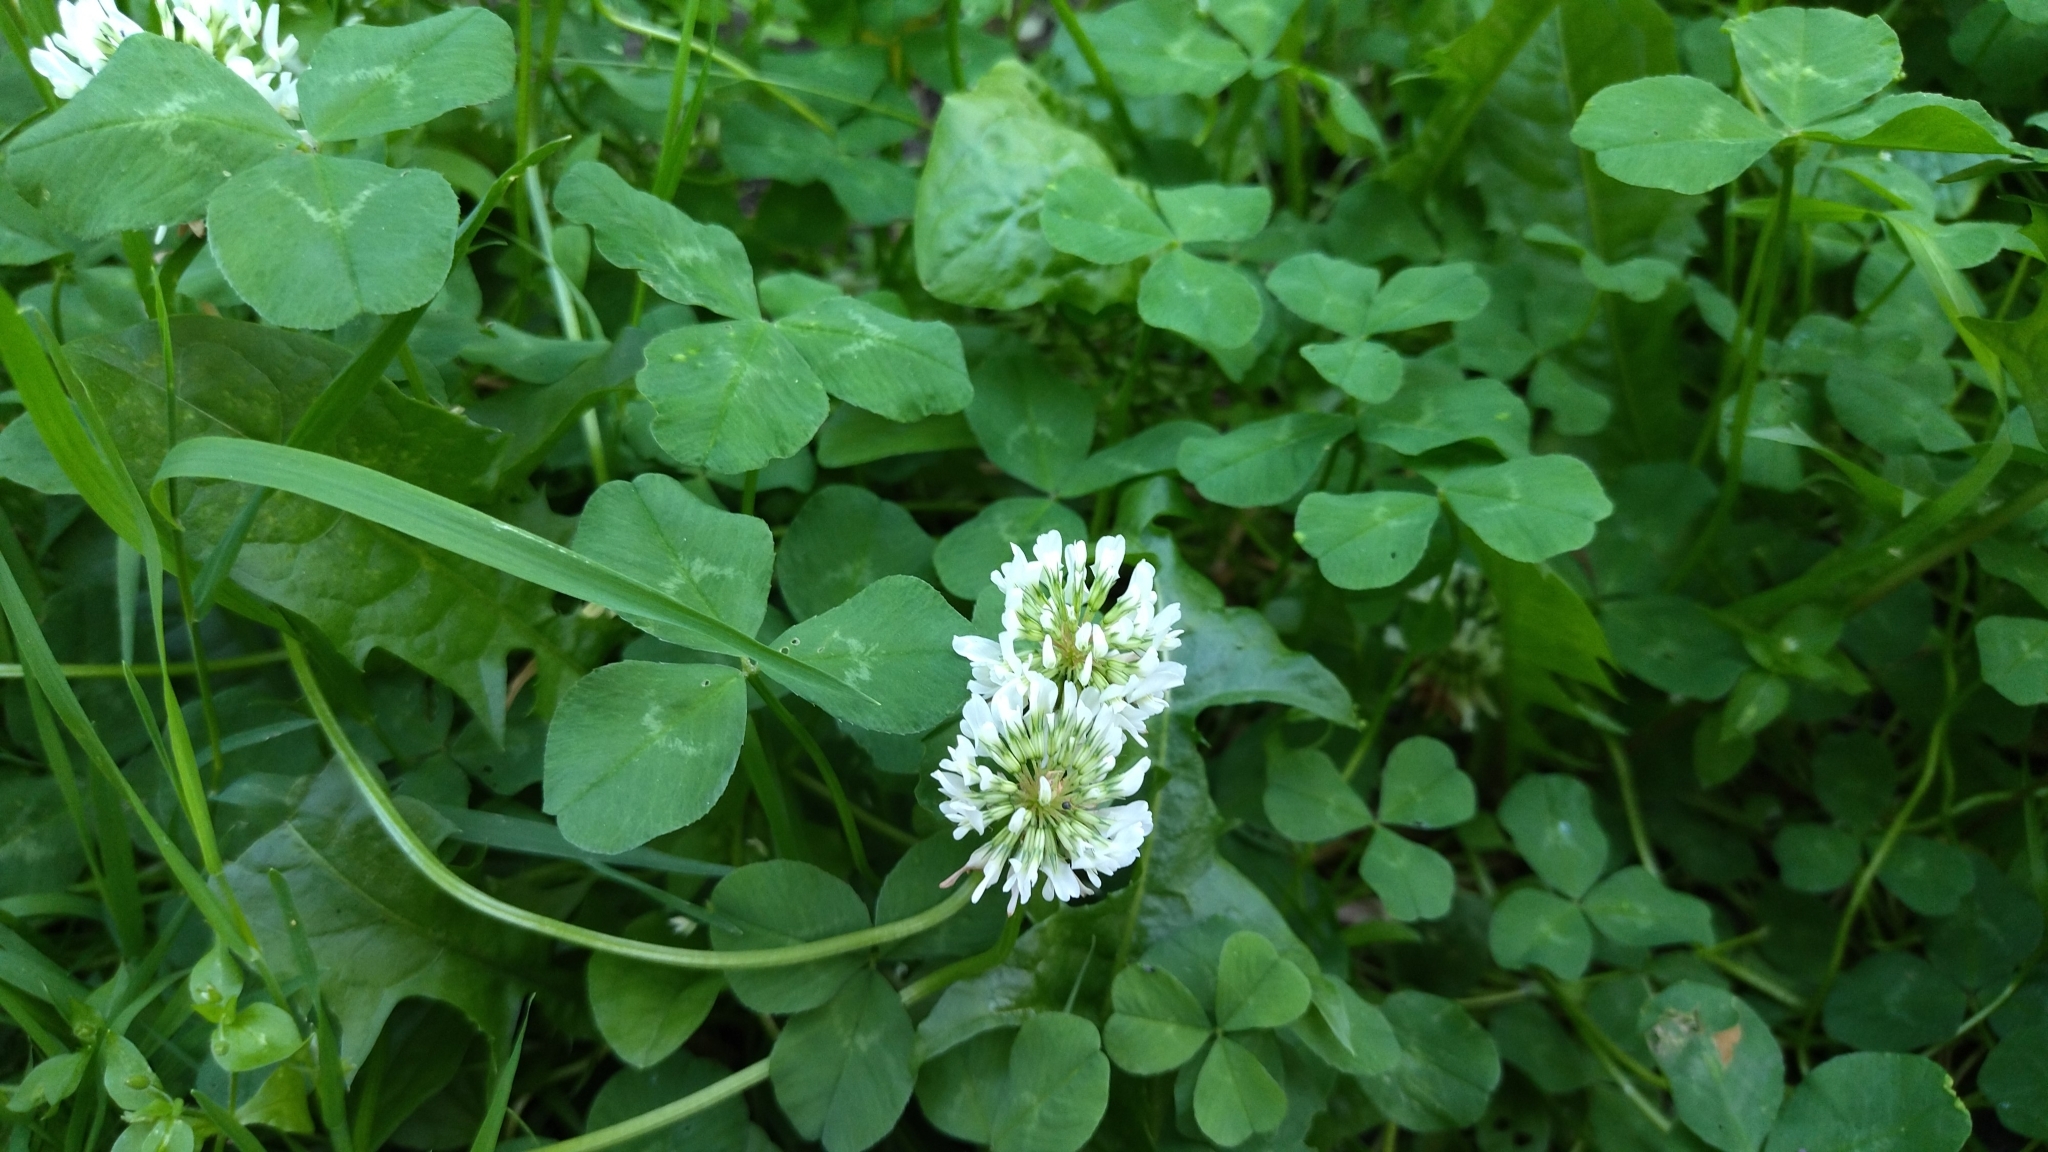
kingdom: Plantae
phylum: Tracheophyta
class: Magnoliopsida
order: Fabales
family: Fabaceae
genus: Trifolium
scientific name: Trifolium repens
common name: White clover
